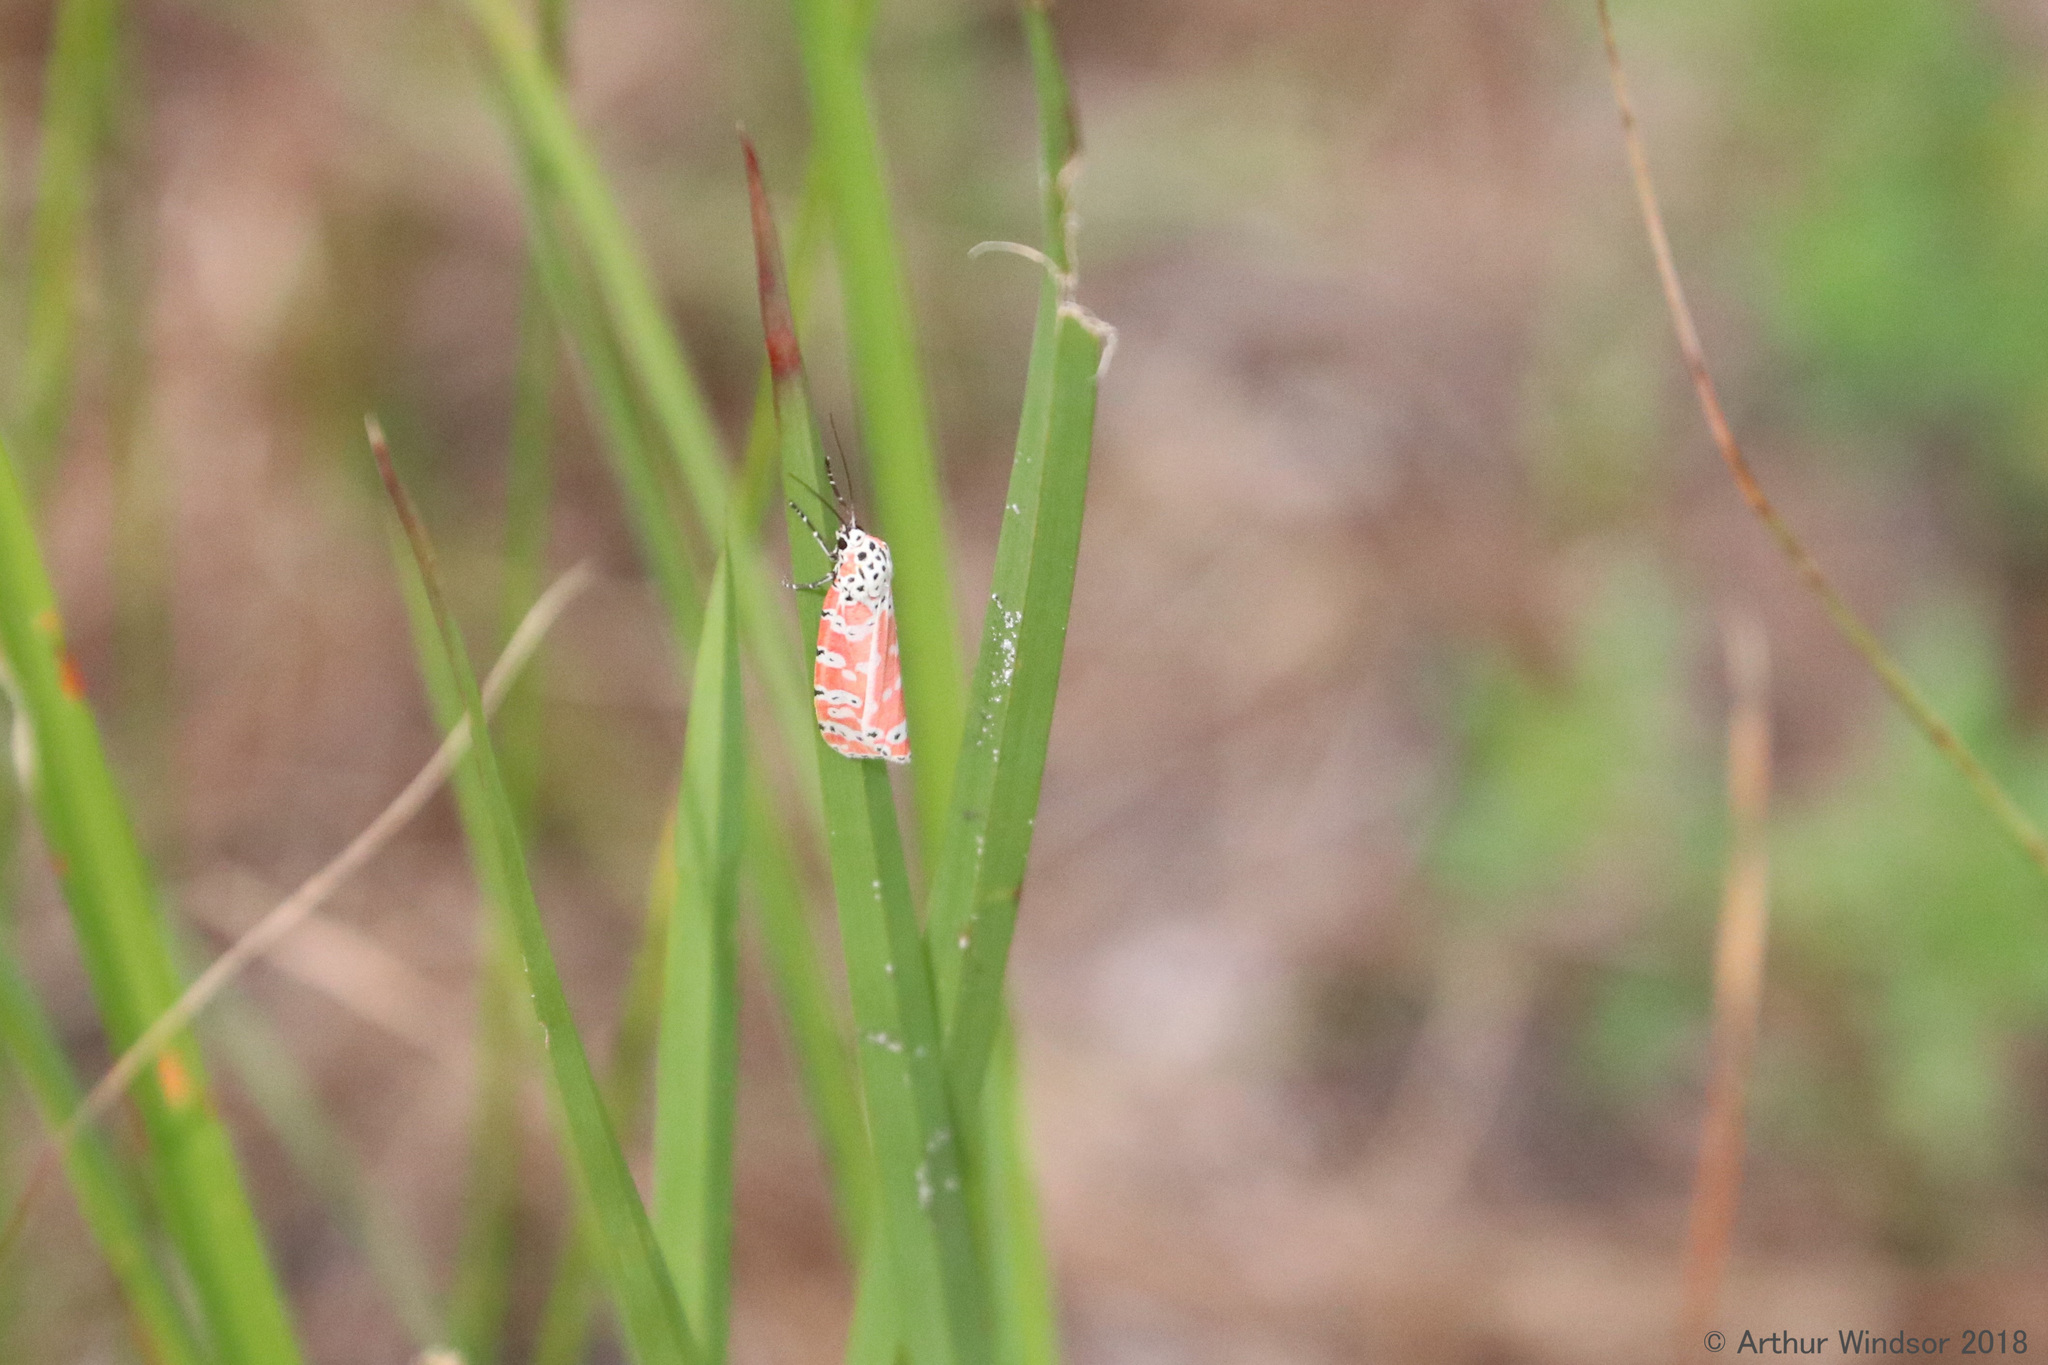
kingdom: Animalia
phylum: Arthropoda
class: Insecta
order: Lepidoptera
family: Erebidae
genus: Utetheisa
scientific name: Utetheisa ornatrix
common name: Beautiful utetheisa
